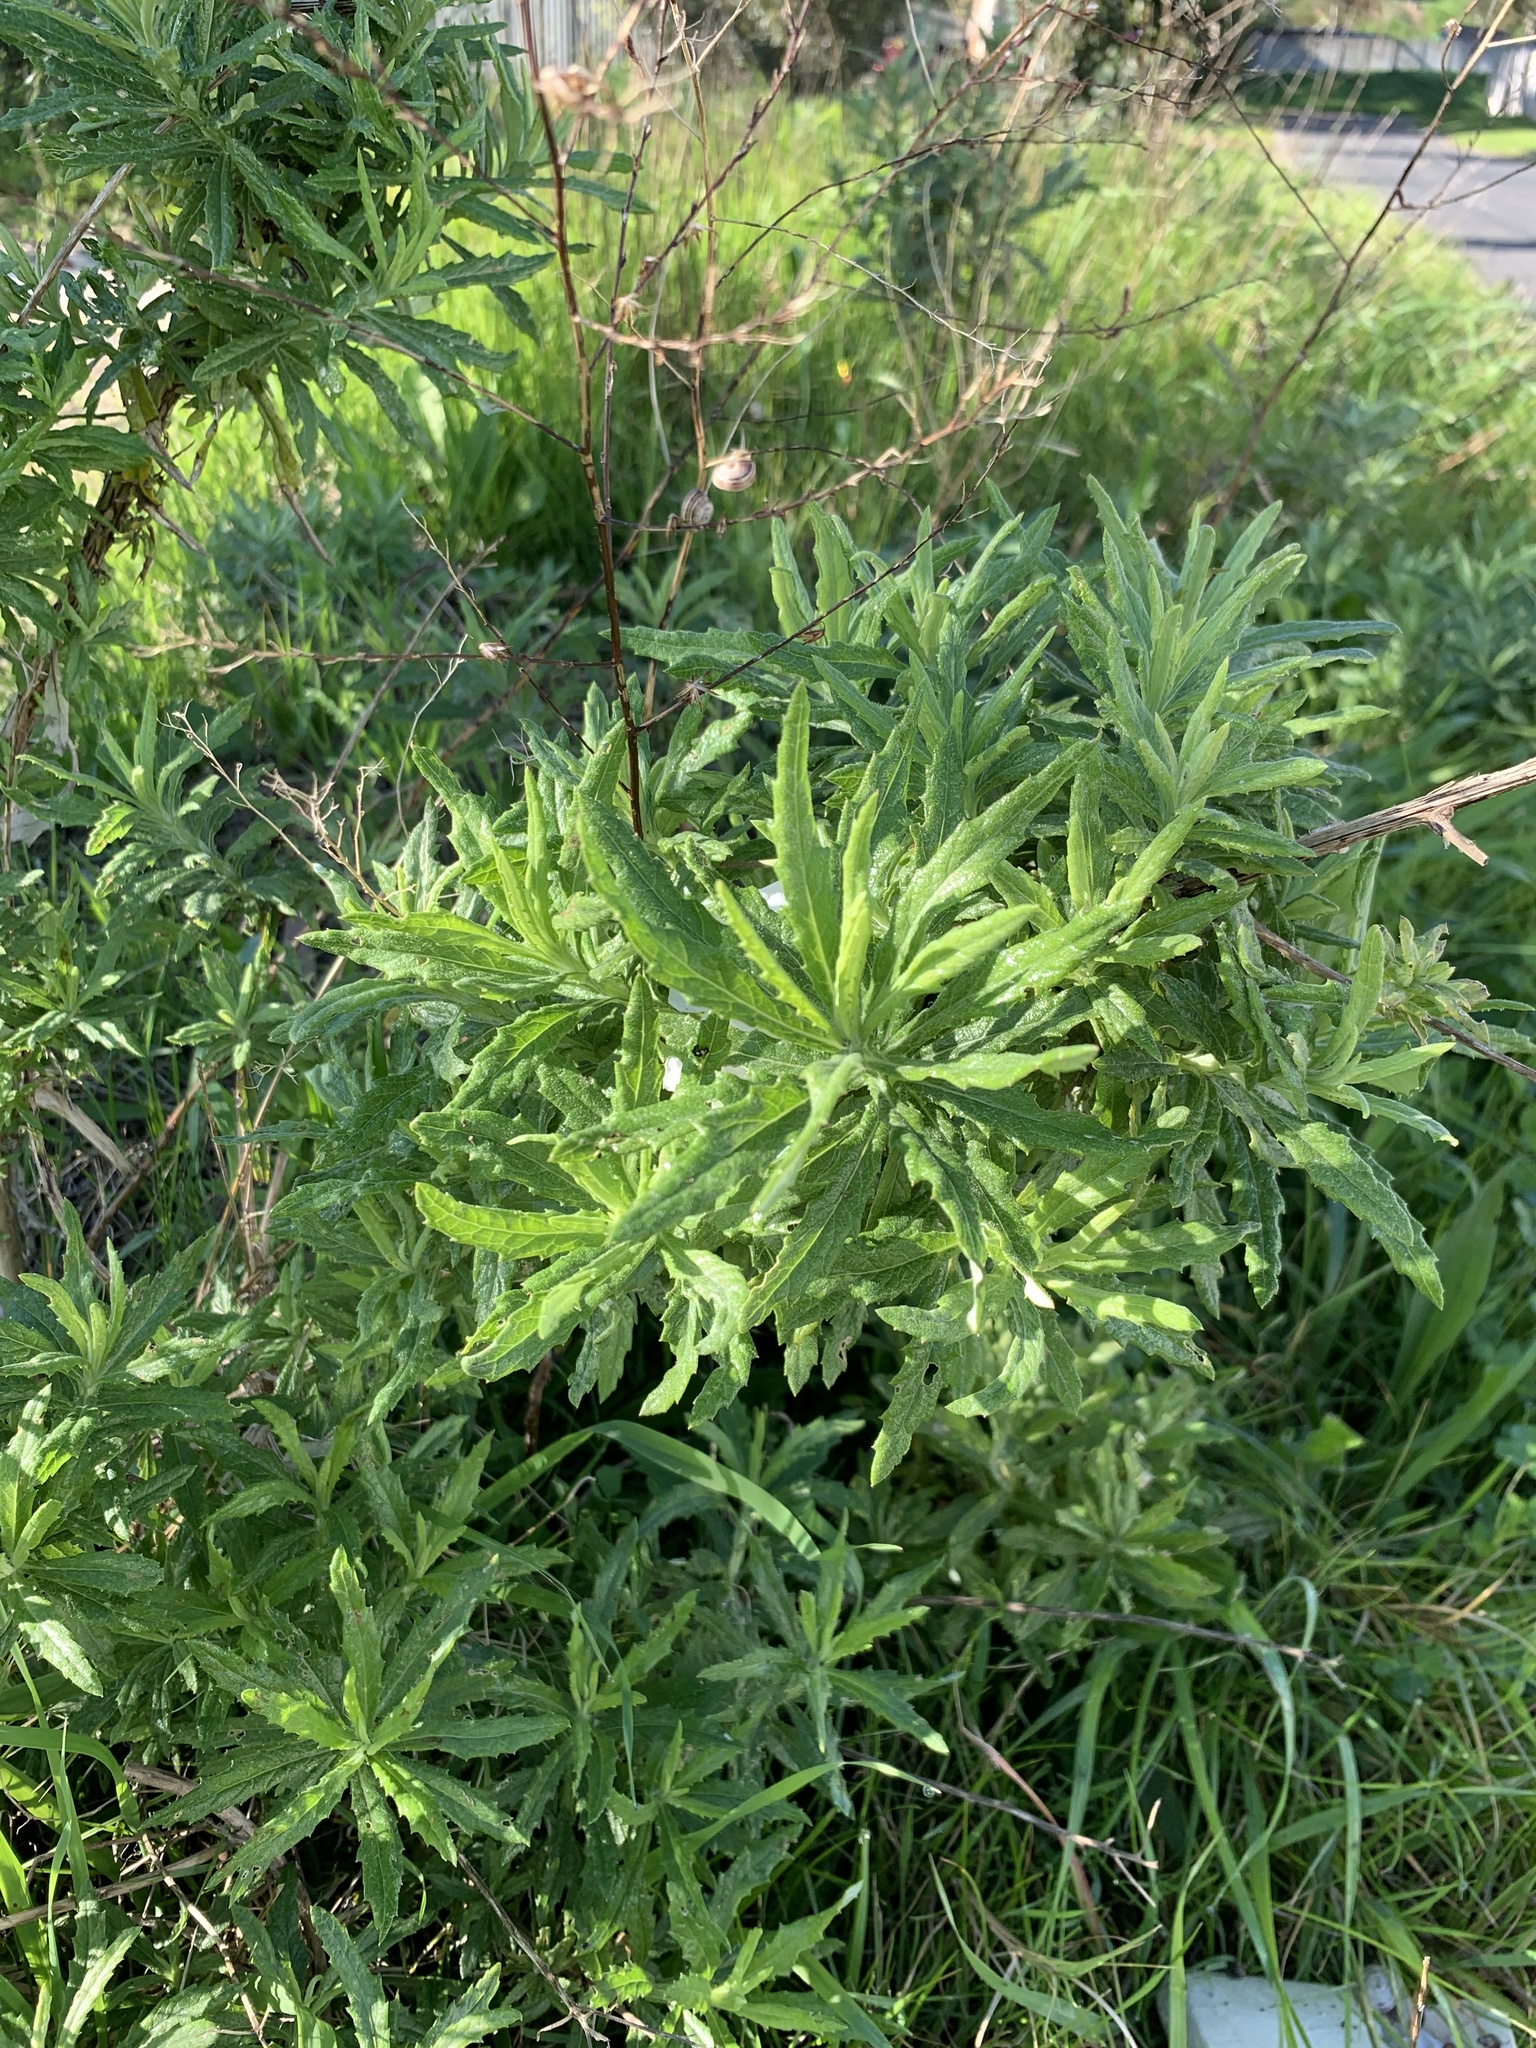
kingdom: Plantae
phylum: Tracheophyta
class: Magnoliopsida
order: Asterales
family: Asteraceae
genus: Senecio
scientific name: Senecio pterophorus
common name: Shoddy ragwort
